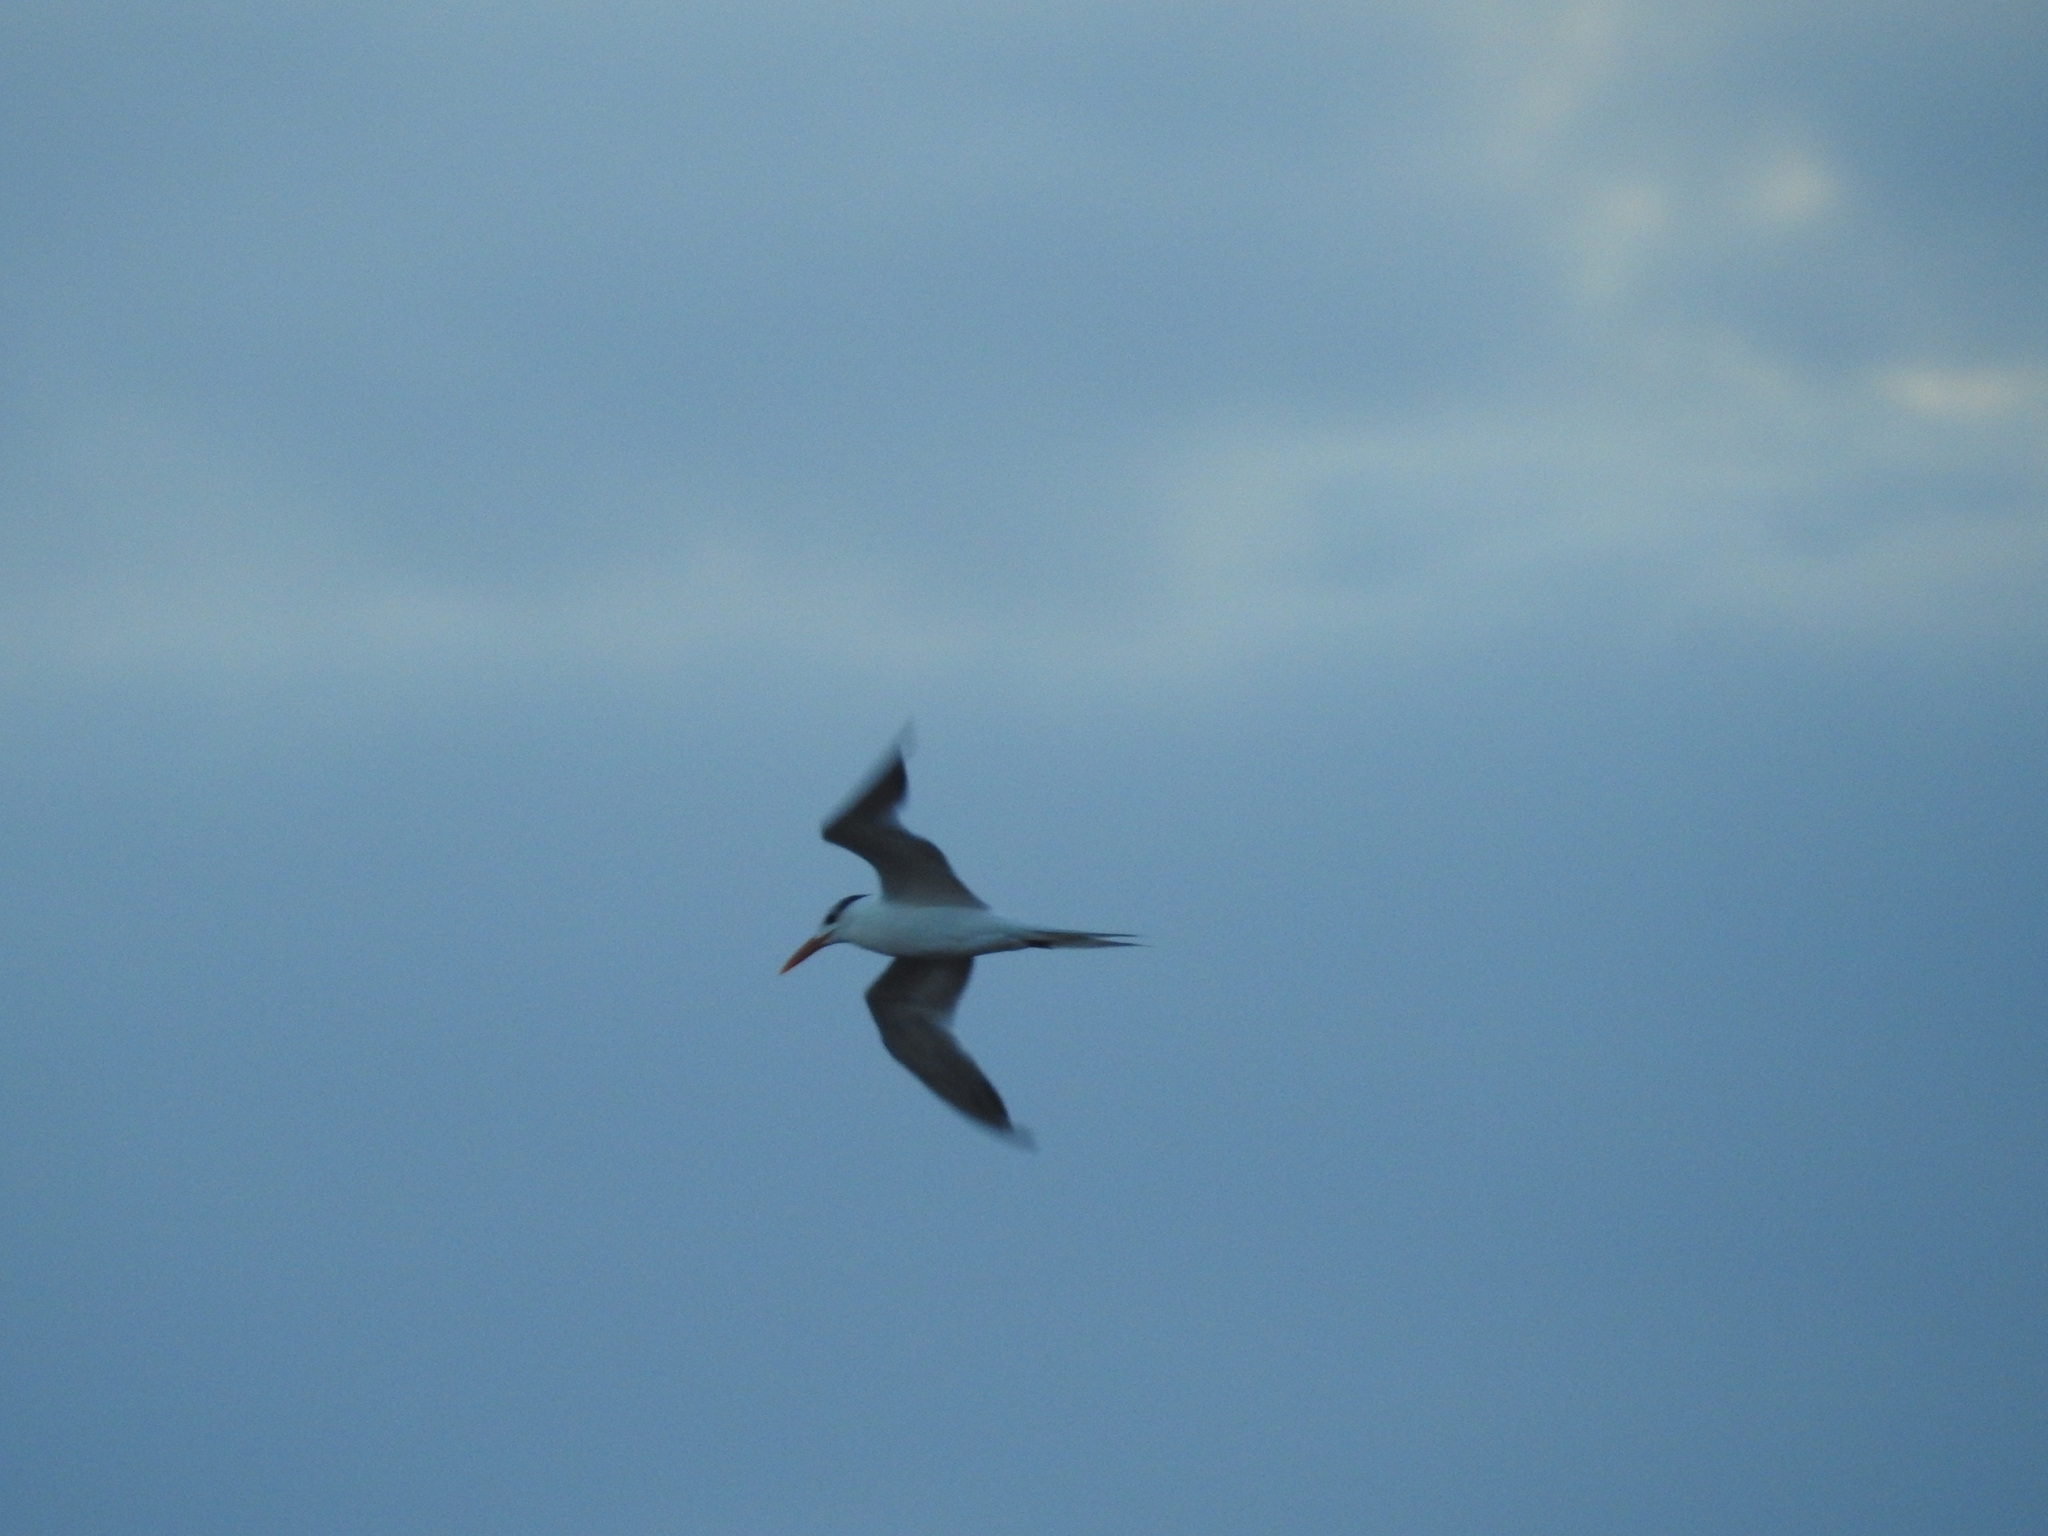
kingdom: Animalia
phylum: Chordata
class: Aves
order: Charadriiformes
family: Laridae
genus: Thalasseus
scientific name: Thalasseus maximus
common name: Royal tern
